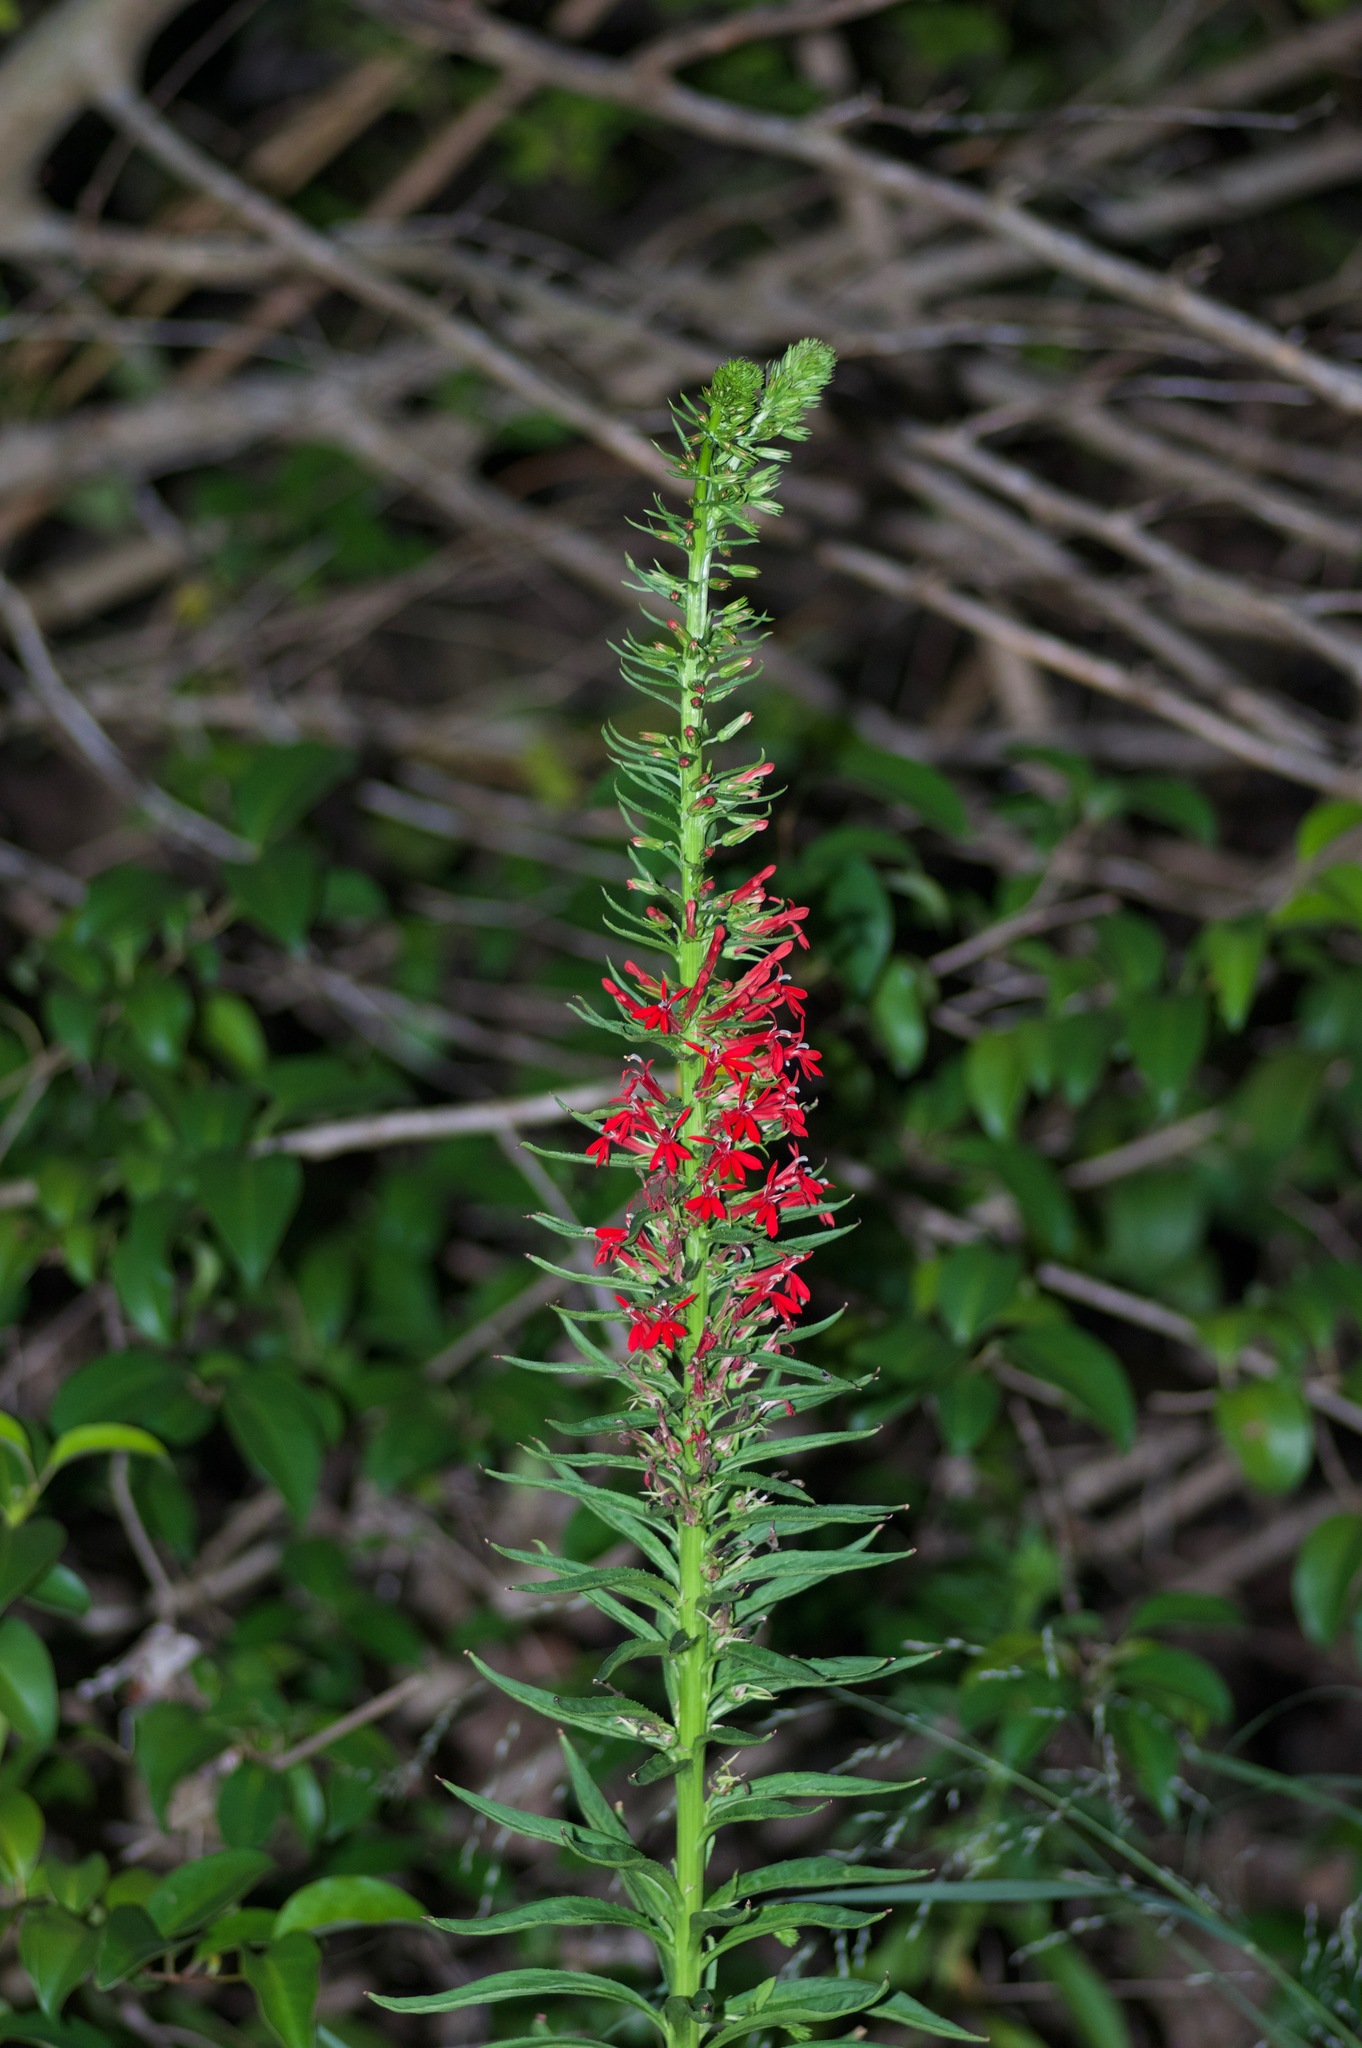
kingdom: Plantae
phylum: Tracheophyta
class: Magnoliopsida
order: Asterales
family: Campanulaceae
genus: Lobelia
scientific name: Lobelia cardinalis
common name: Cardinal flower
